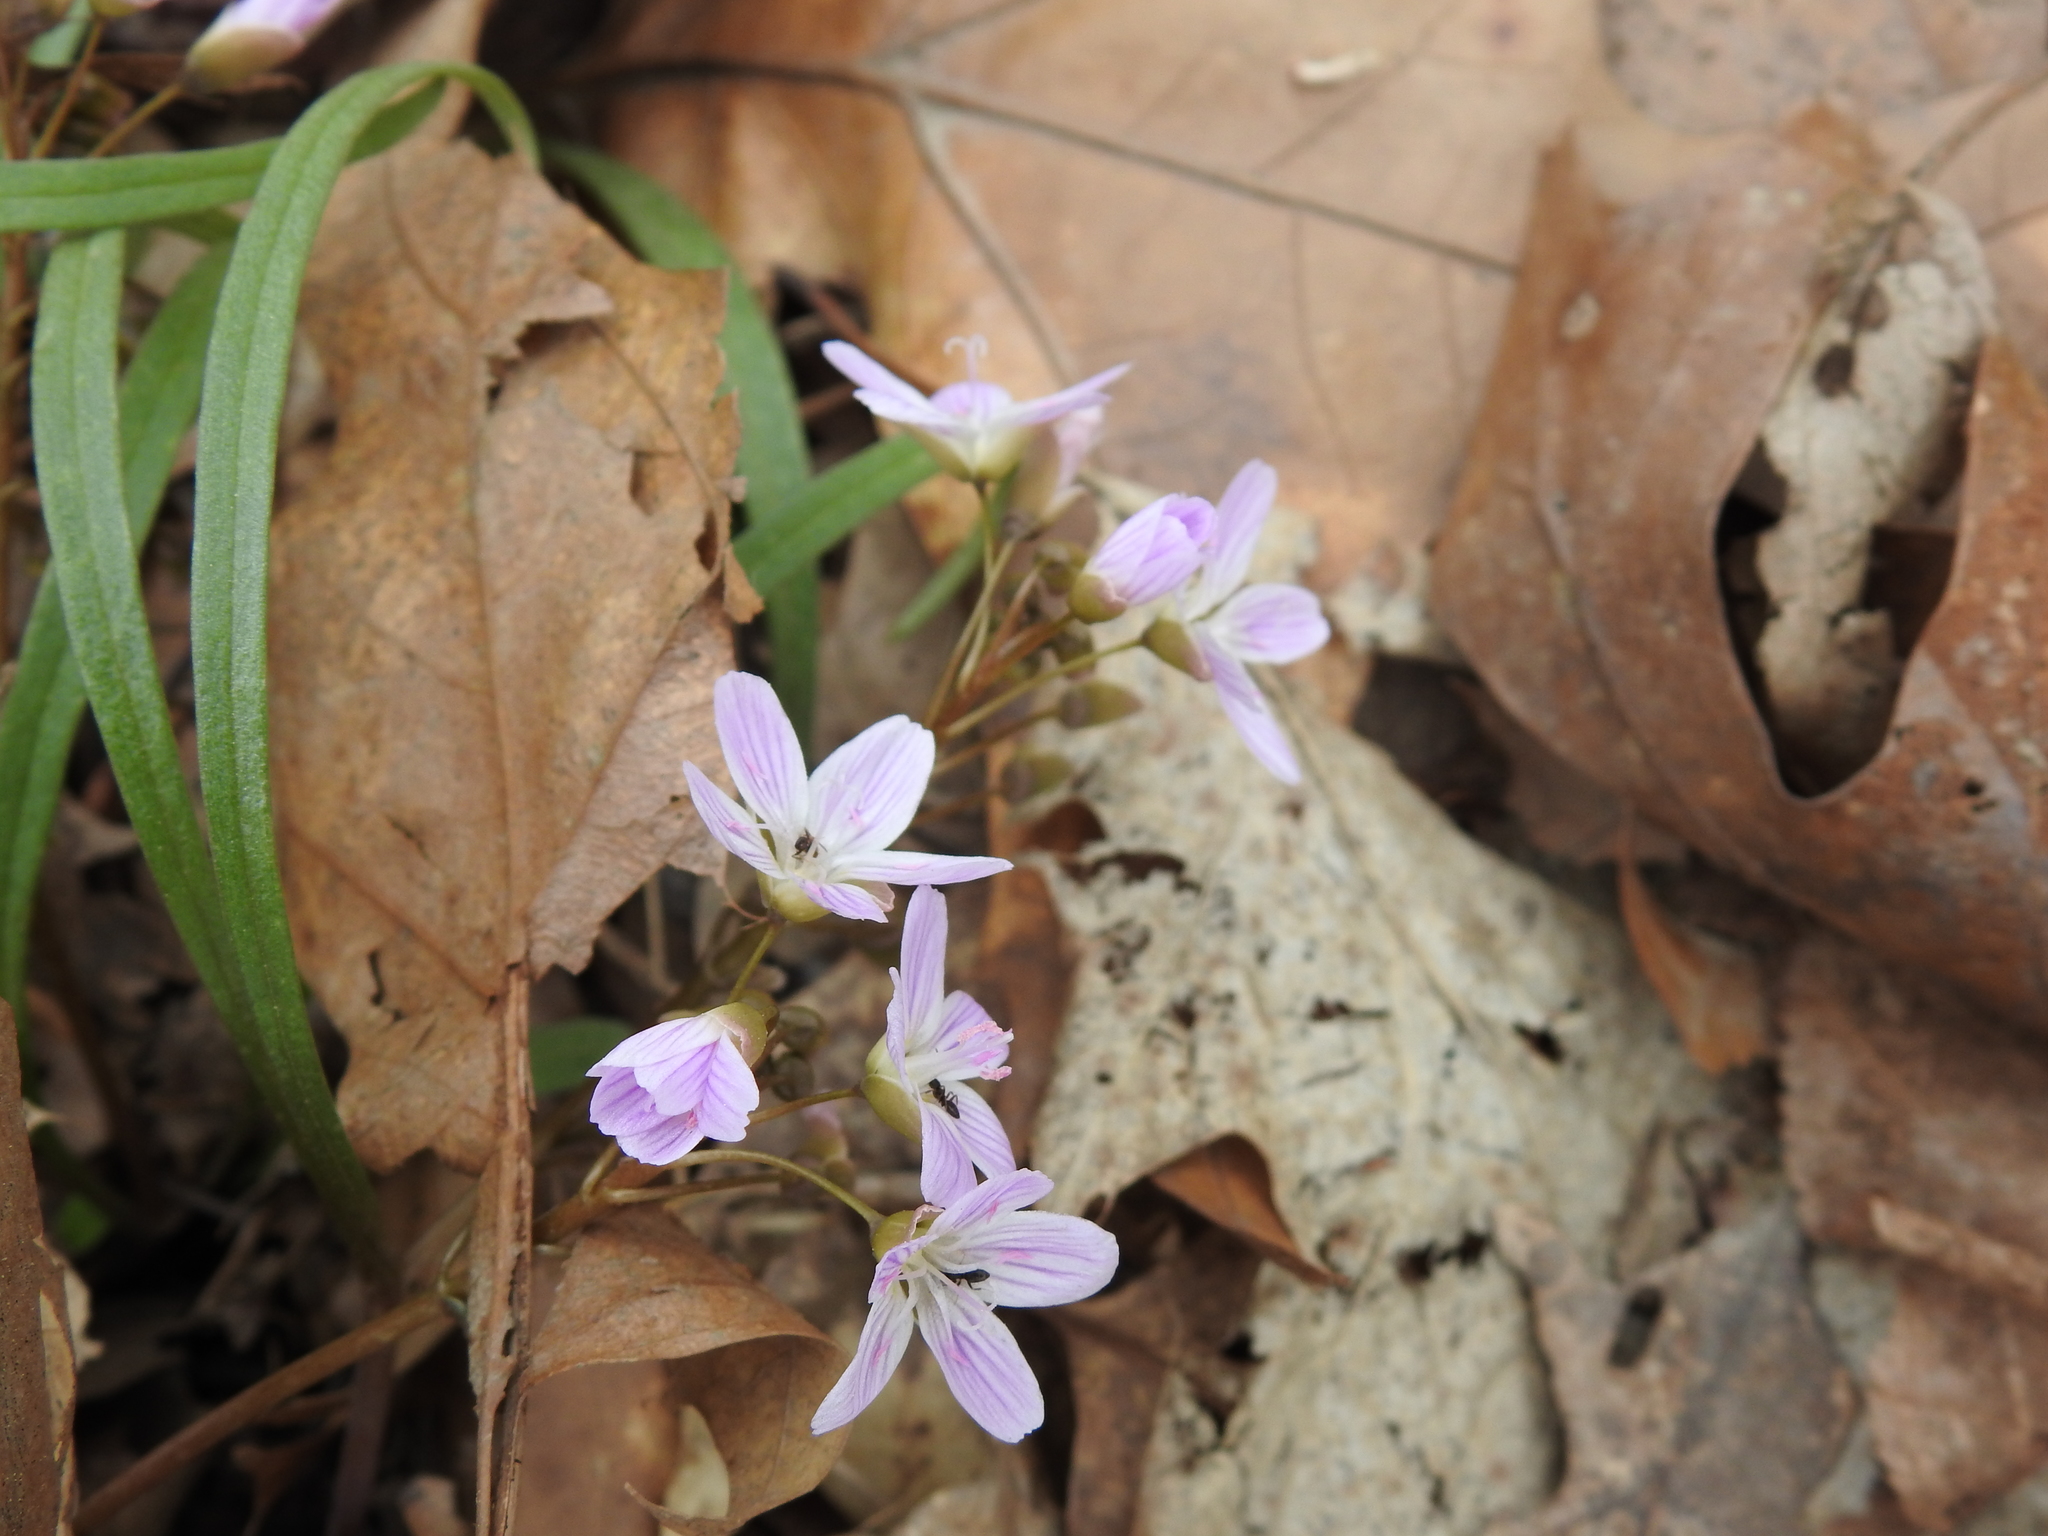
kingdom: Plantae
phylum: Tracheophyta
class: Magnoliopsida
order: Caryophyllales
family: Montiaceae
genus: Claytonia
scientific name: Claytonia virginica
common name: Virginia springbeauty
